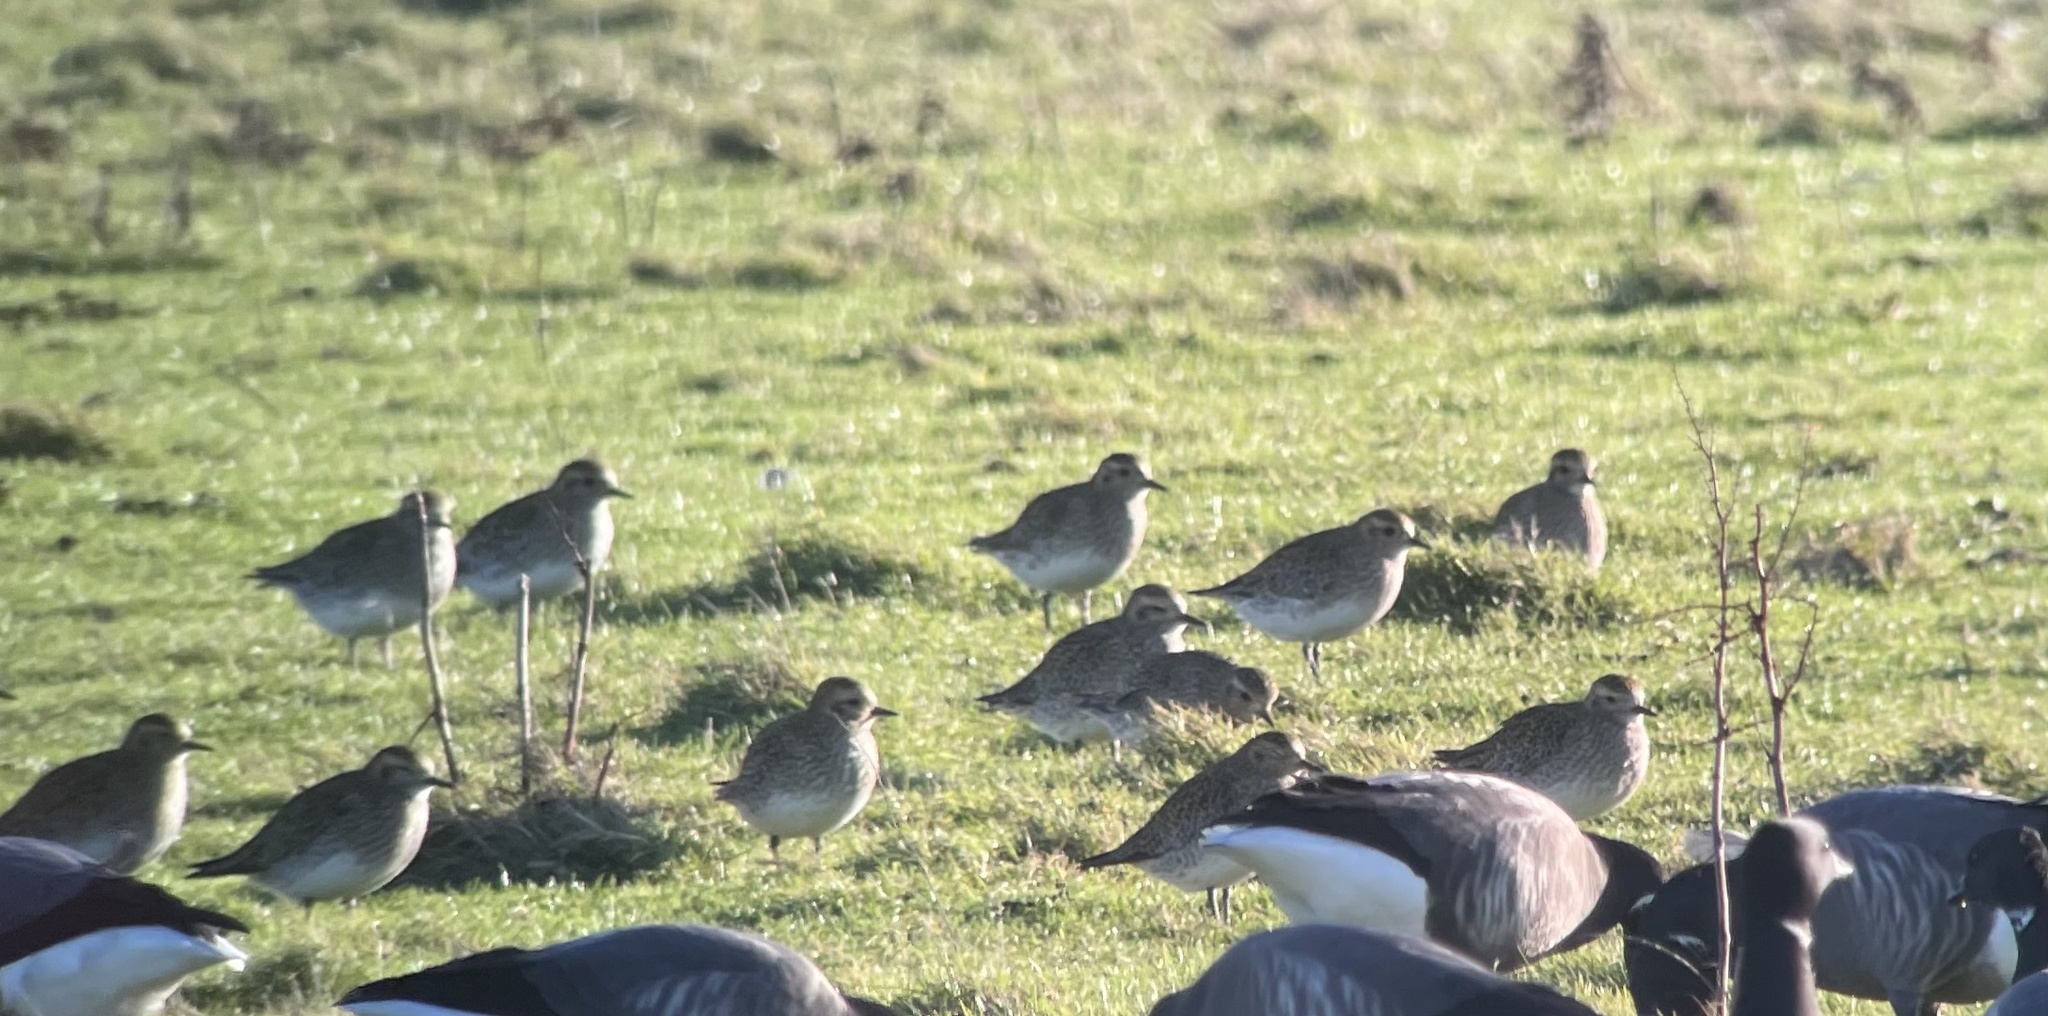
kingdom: Animalia
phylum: Chordata
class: Aves
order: Charadriiformes
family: Charadriidae
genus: Pluvialis
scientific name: Pluvialis apricaria
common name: European golden plover
